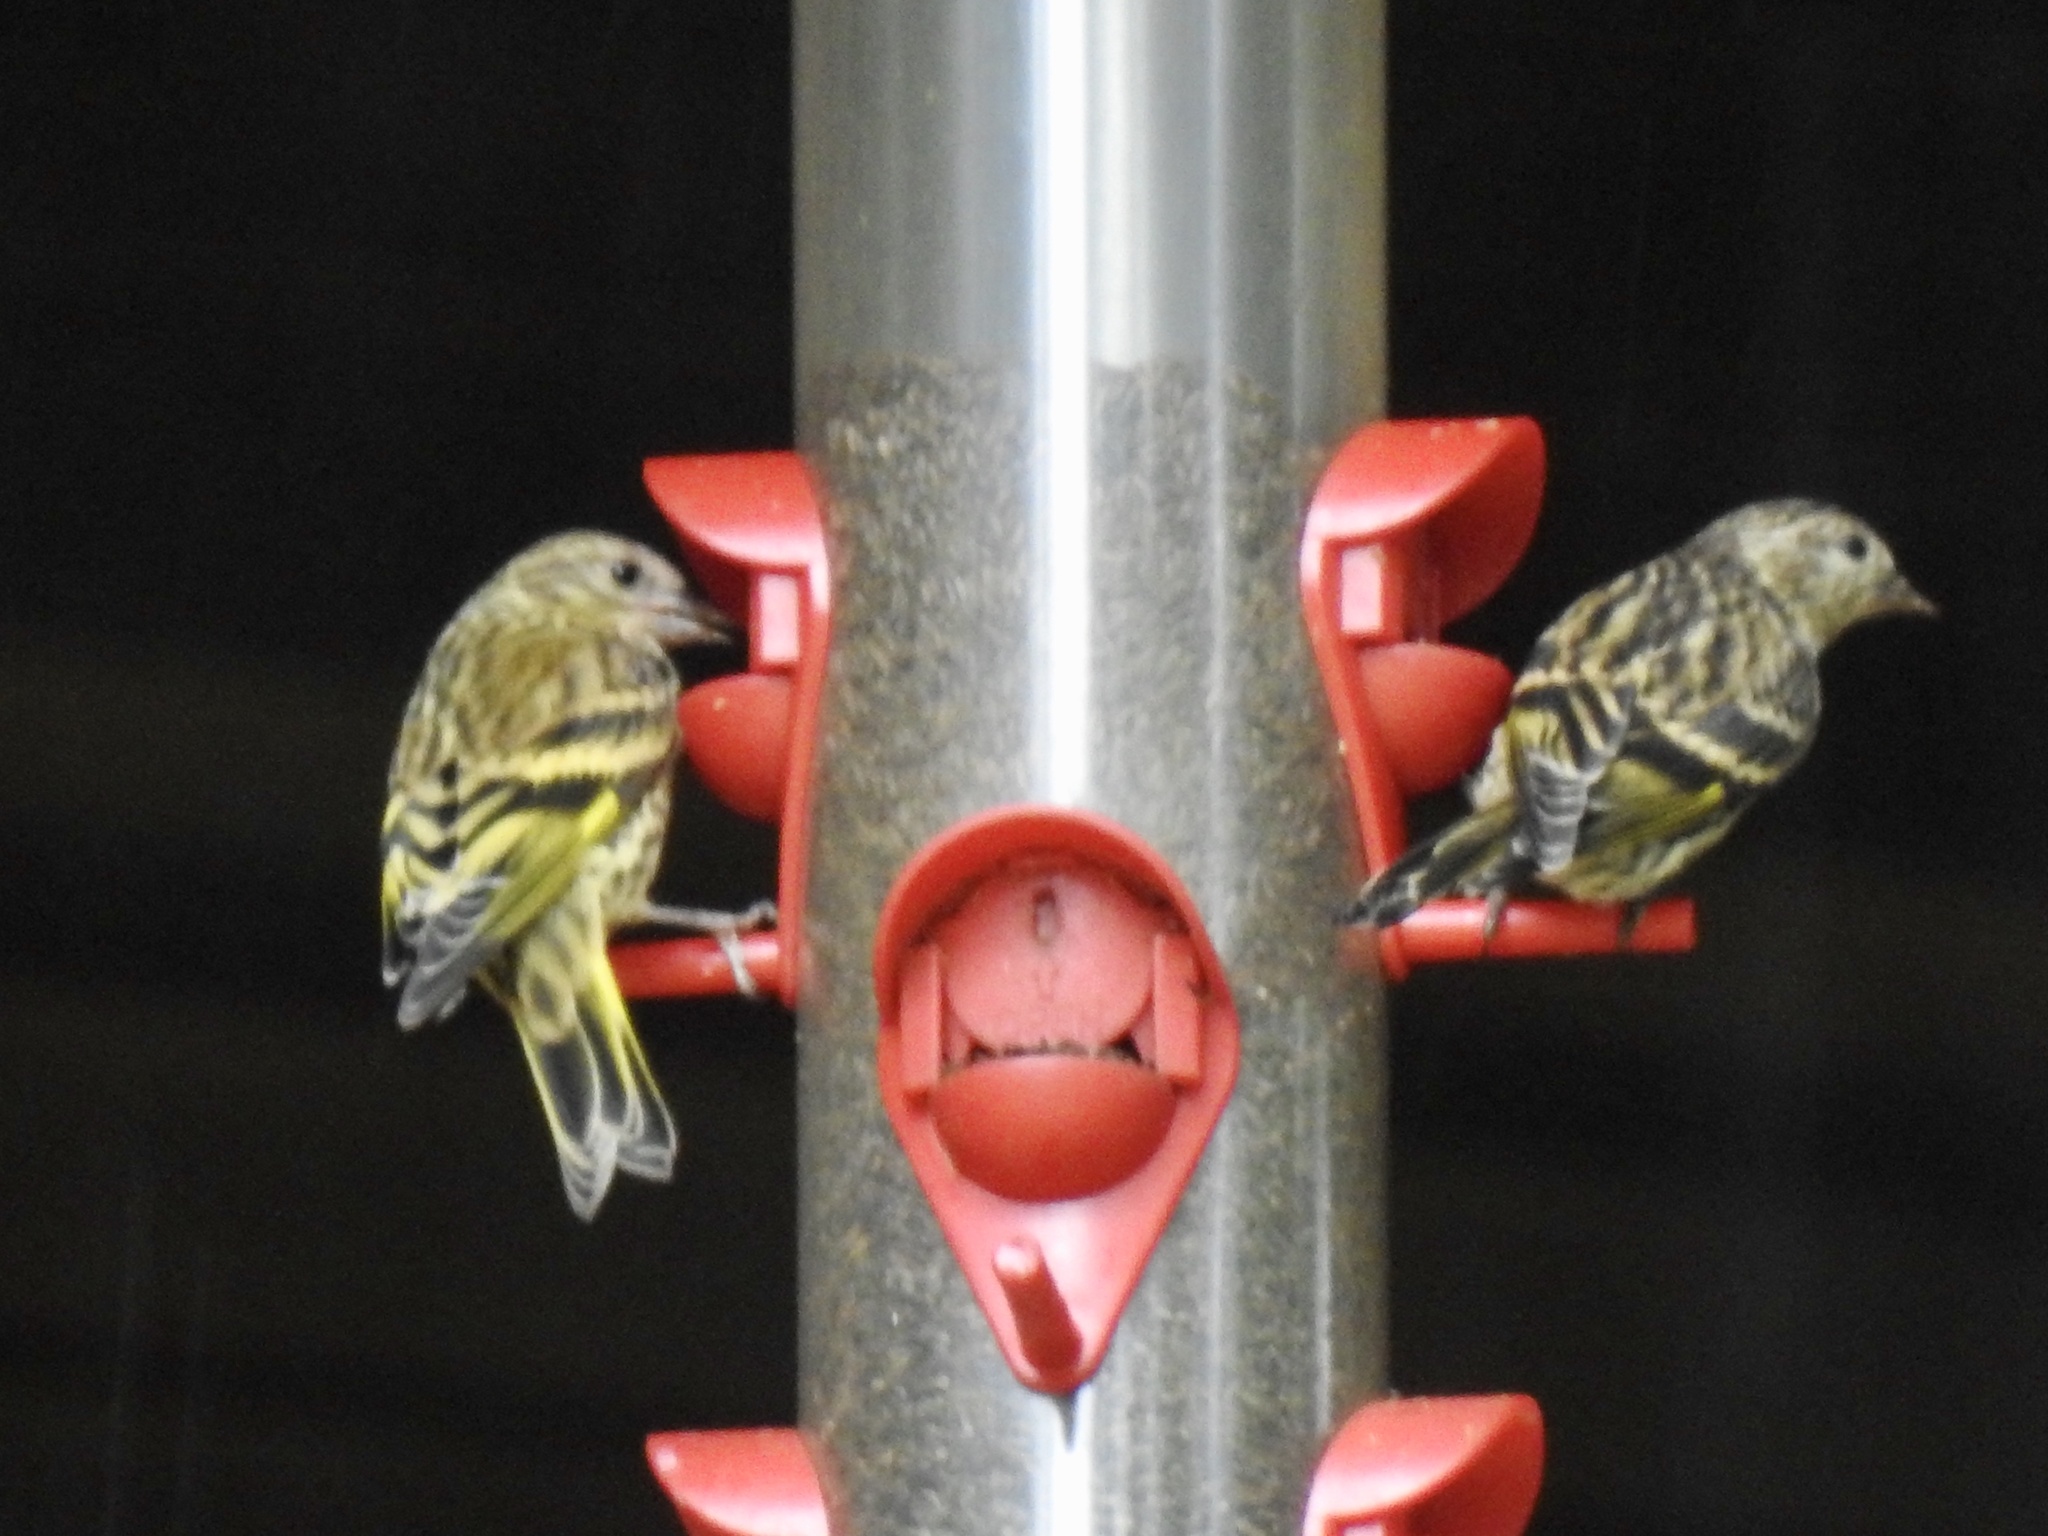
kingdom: Animalia
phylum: Chordata
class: Aves
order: Passeriformes
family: Fringillidae
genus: Spinus
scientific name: Spinus pinus
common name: Pine siskin
